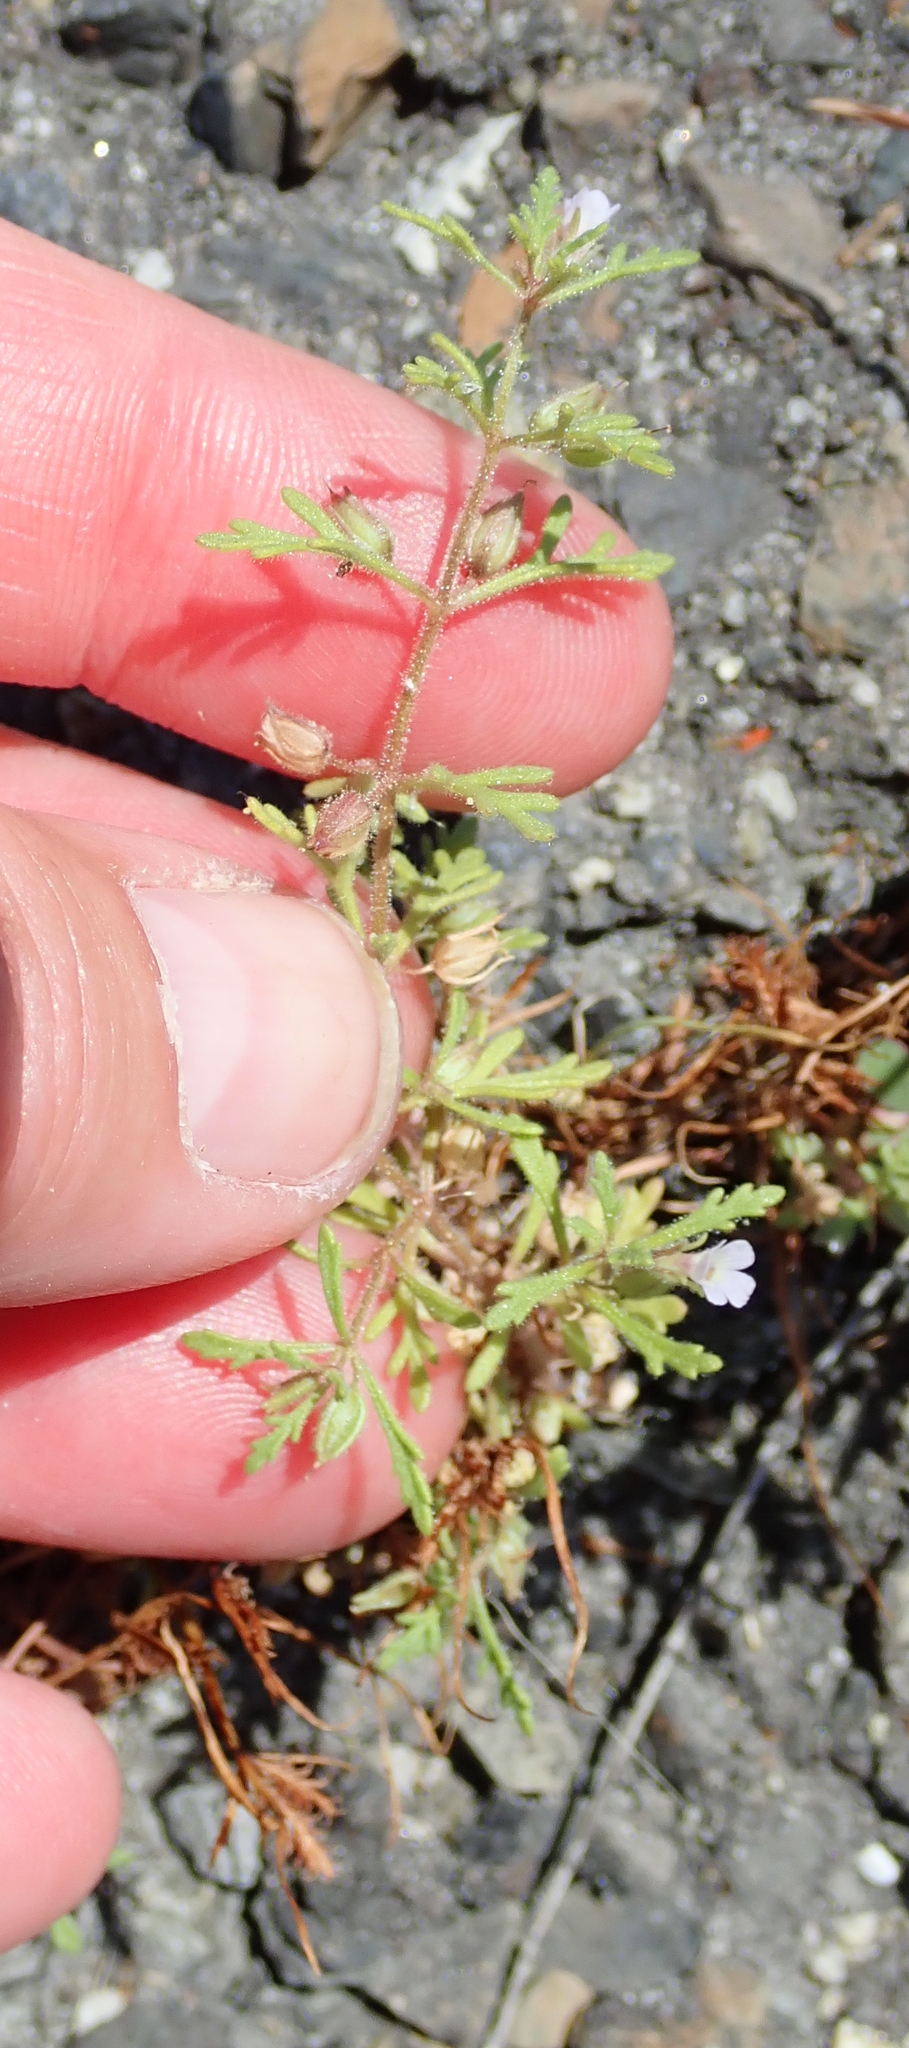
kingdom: Plantae
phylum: Tracheophyta
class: Magnoliopsida
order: Lamiales
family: Plantaginaceae
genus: Leucospora
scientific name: Leucospora multifida
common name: Narrow-leaf paleseed
